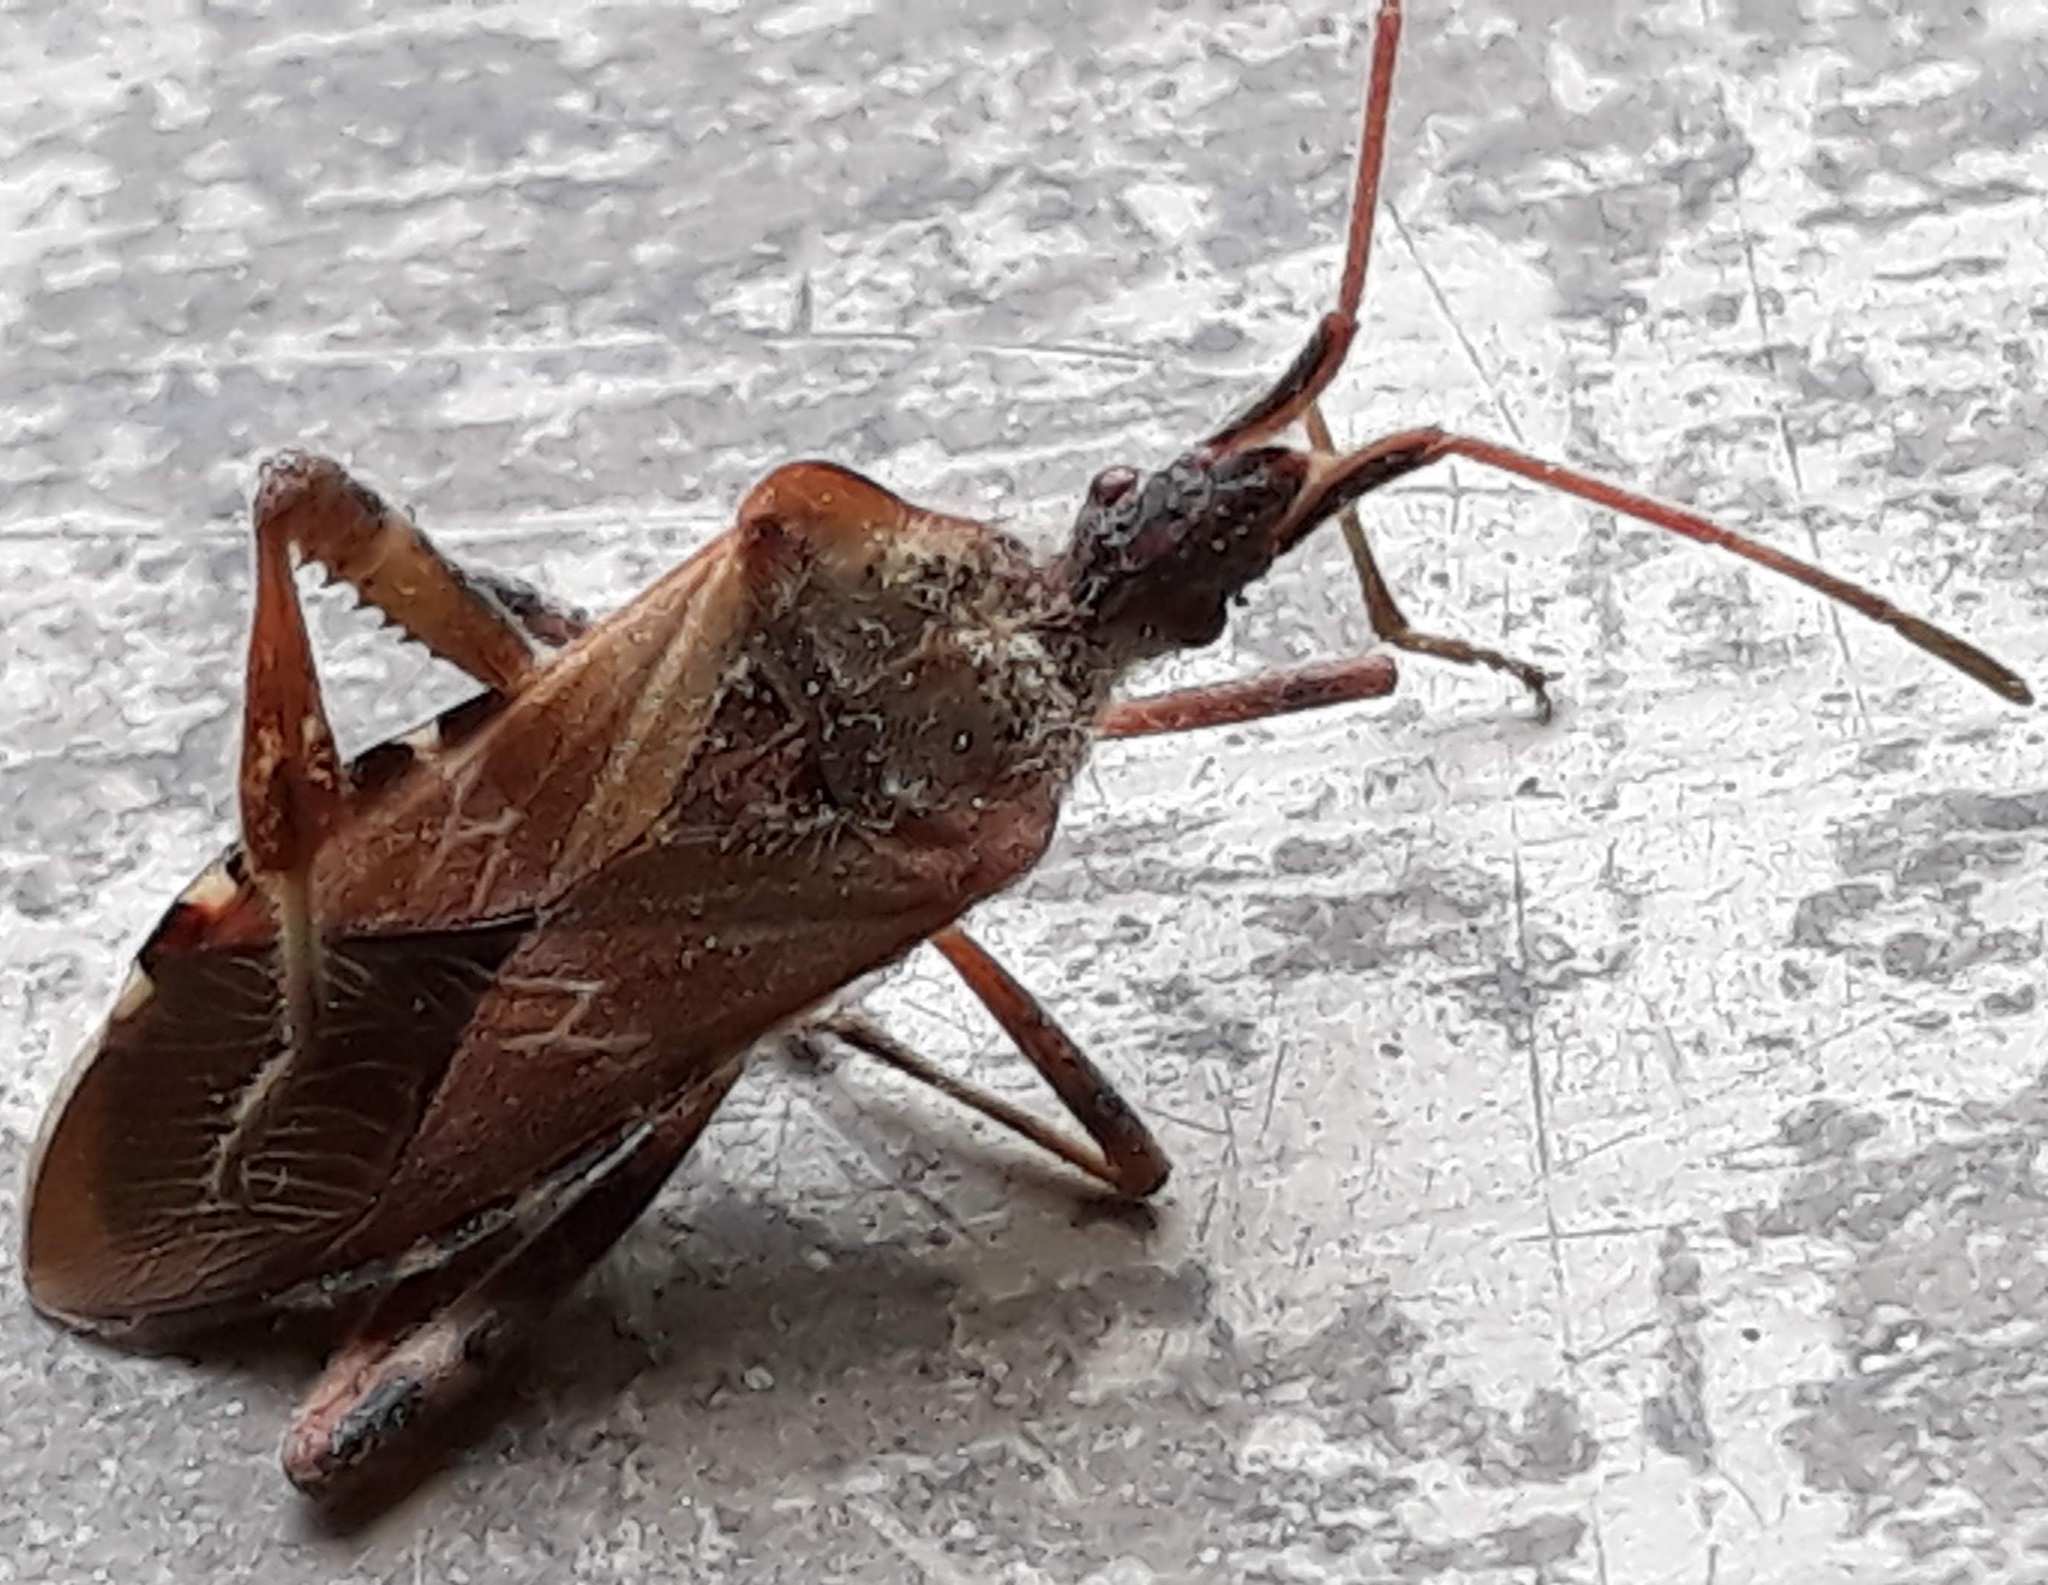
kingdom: Animalia
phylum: Arthropoda
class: Insecta
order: Hemiptera
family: Coreidae
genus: Leptoglossus
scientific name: Leptoglossus occidentalis
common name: Western conifer-seed bug
